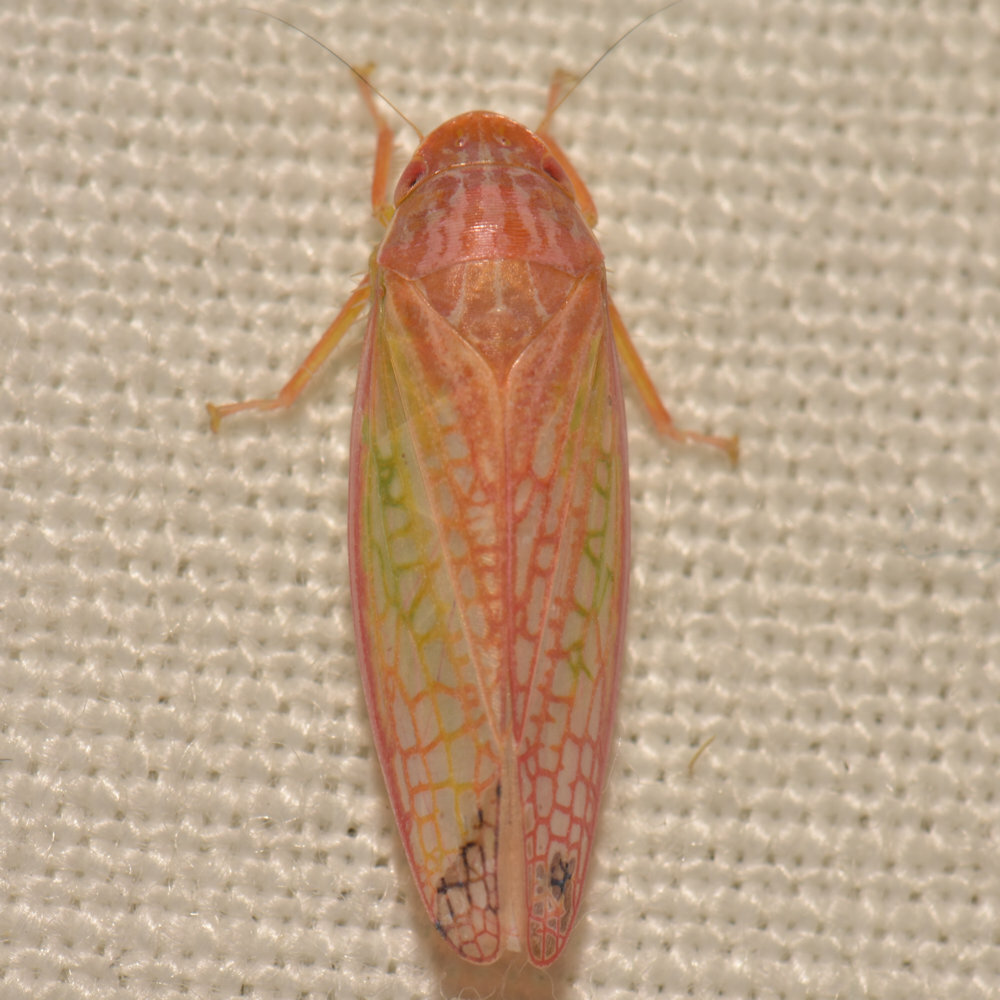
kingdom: Animalia
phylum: Arthropoda
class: Insecta
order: Hemiptera
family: Cicadellidae
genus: Gyponana
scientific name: Gyponana octolineata
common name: Eight-lined leafhopper
